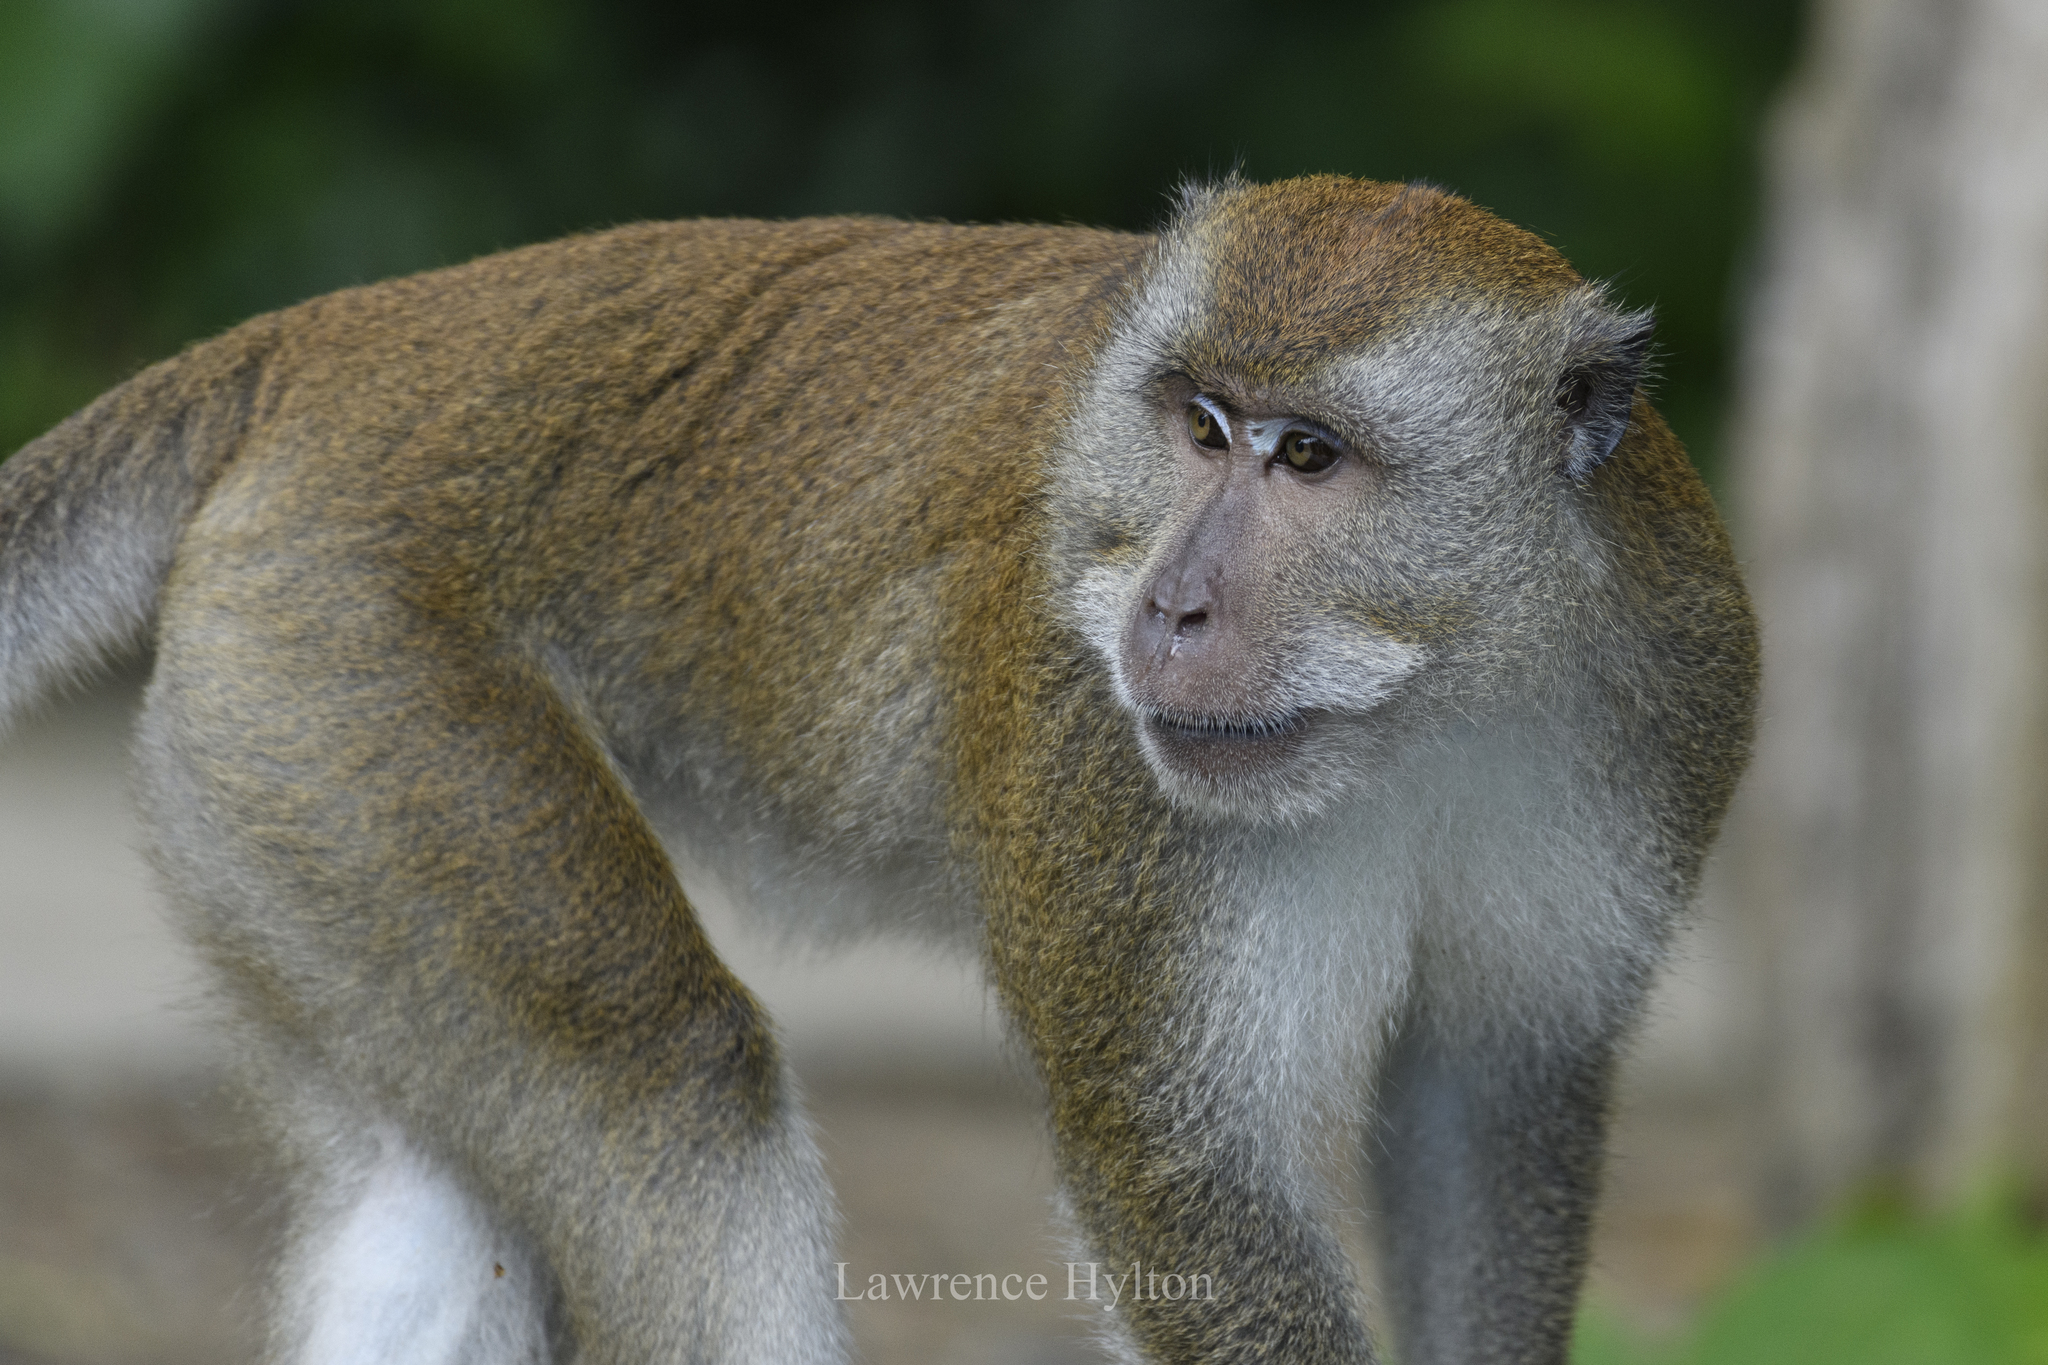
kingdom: Animalia
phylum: Chordata
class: Mammalia
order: Primates
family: Cercopithecidae
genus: Macaca
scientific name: Macaca fascicularis
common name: Crab-eating macaque
